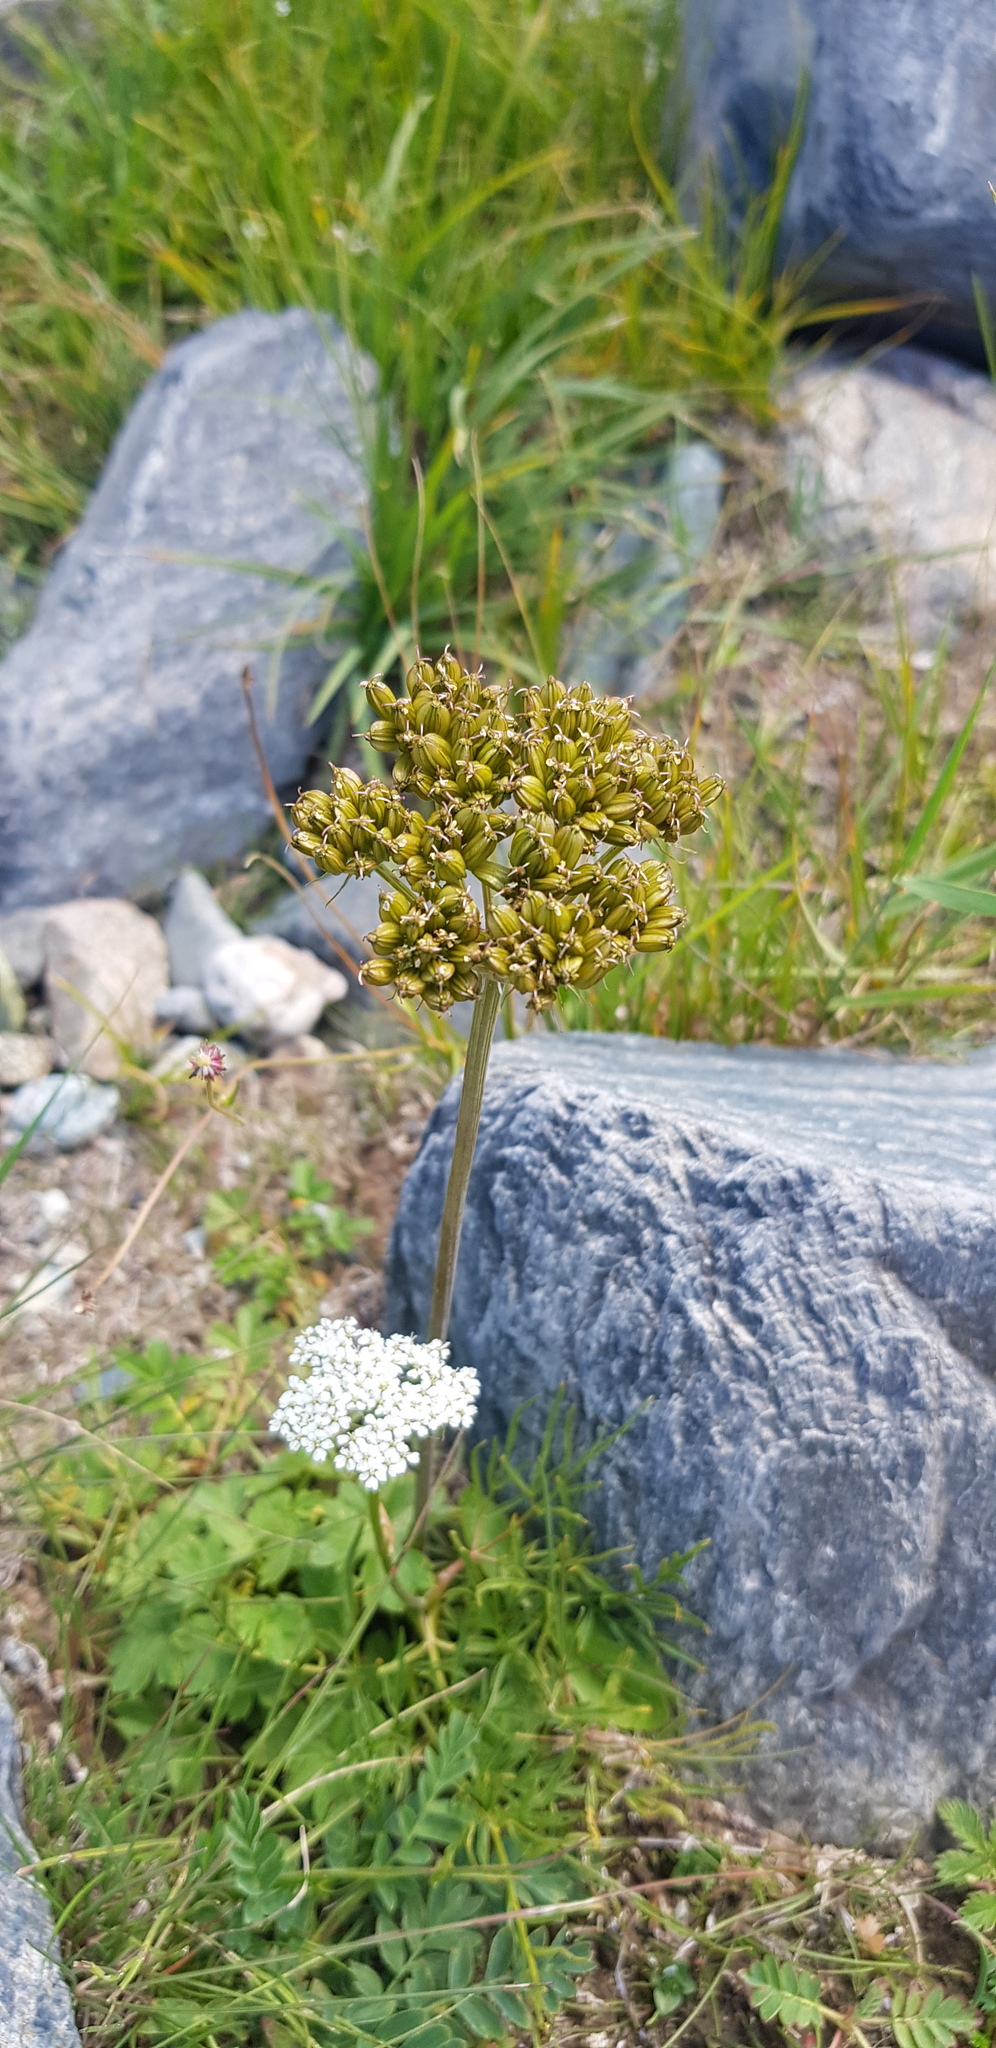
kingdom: Plantae
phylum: Tracheophyta
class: Magnoliopsida
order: Apiales
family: Apiaceae
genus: Conioselinum
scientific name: Conioselinum tataricum
